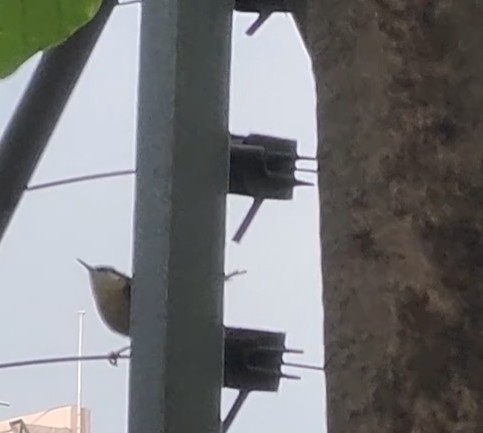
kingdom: Animalia
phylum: Chordata
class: Aves
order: Passeriformes
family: Cisticolidae
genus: Prinia
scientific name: Prinia socialis
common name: Ashy prinia
